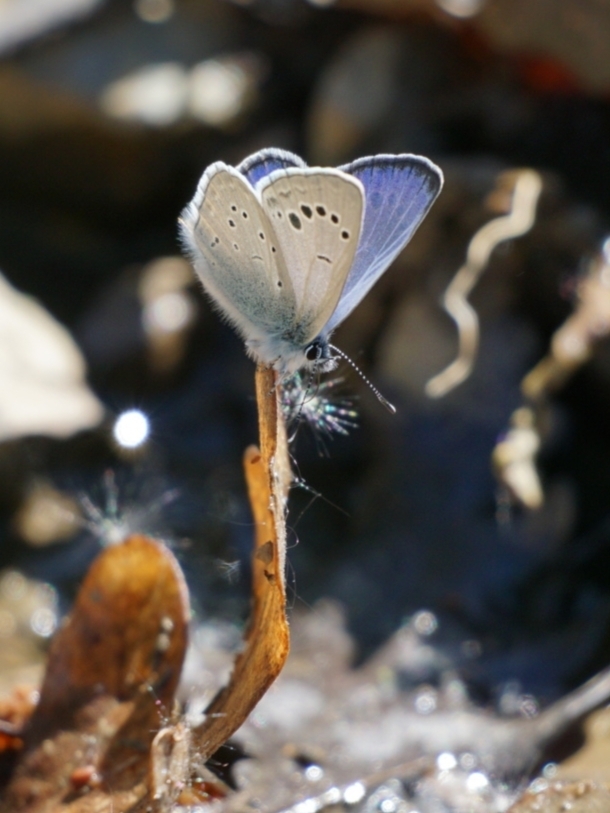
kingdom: Animalia
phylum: Arthropoda
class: Insecta
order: Lepidoptera
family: Lycaenidae
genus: Glaucopsyche
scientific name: Glaucopsyche melanops
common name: Black-eyed blue
